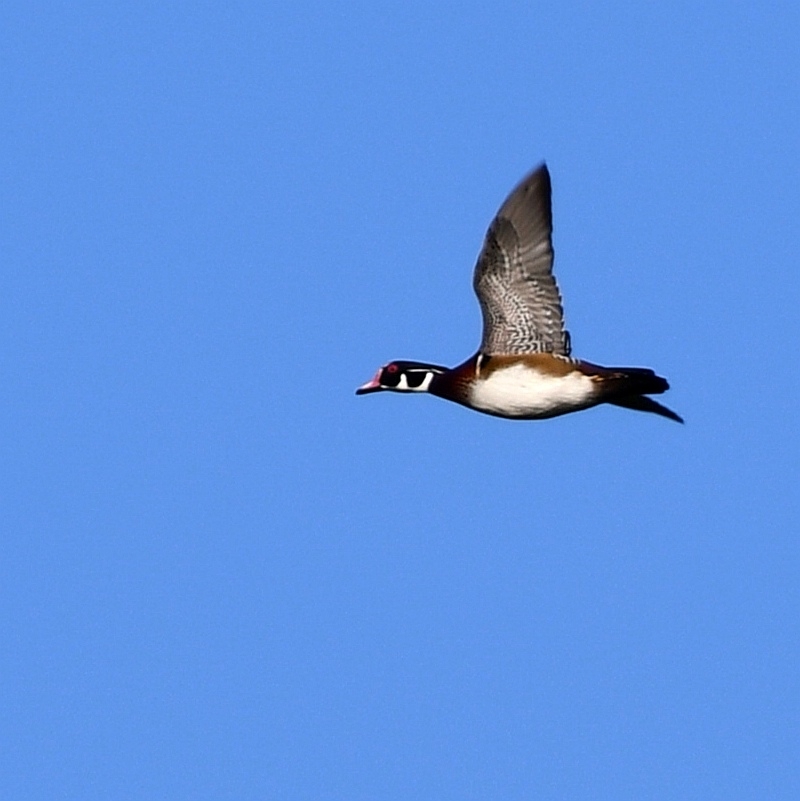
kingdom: Animalia
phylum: Chordata
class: Aves
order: Anseriformes
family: Anatidae
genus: Aix
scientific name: Aix sponsa
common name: Wood duck
